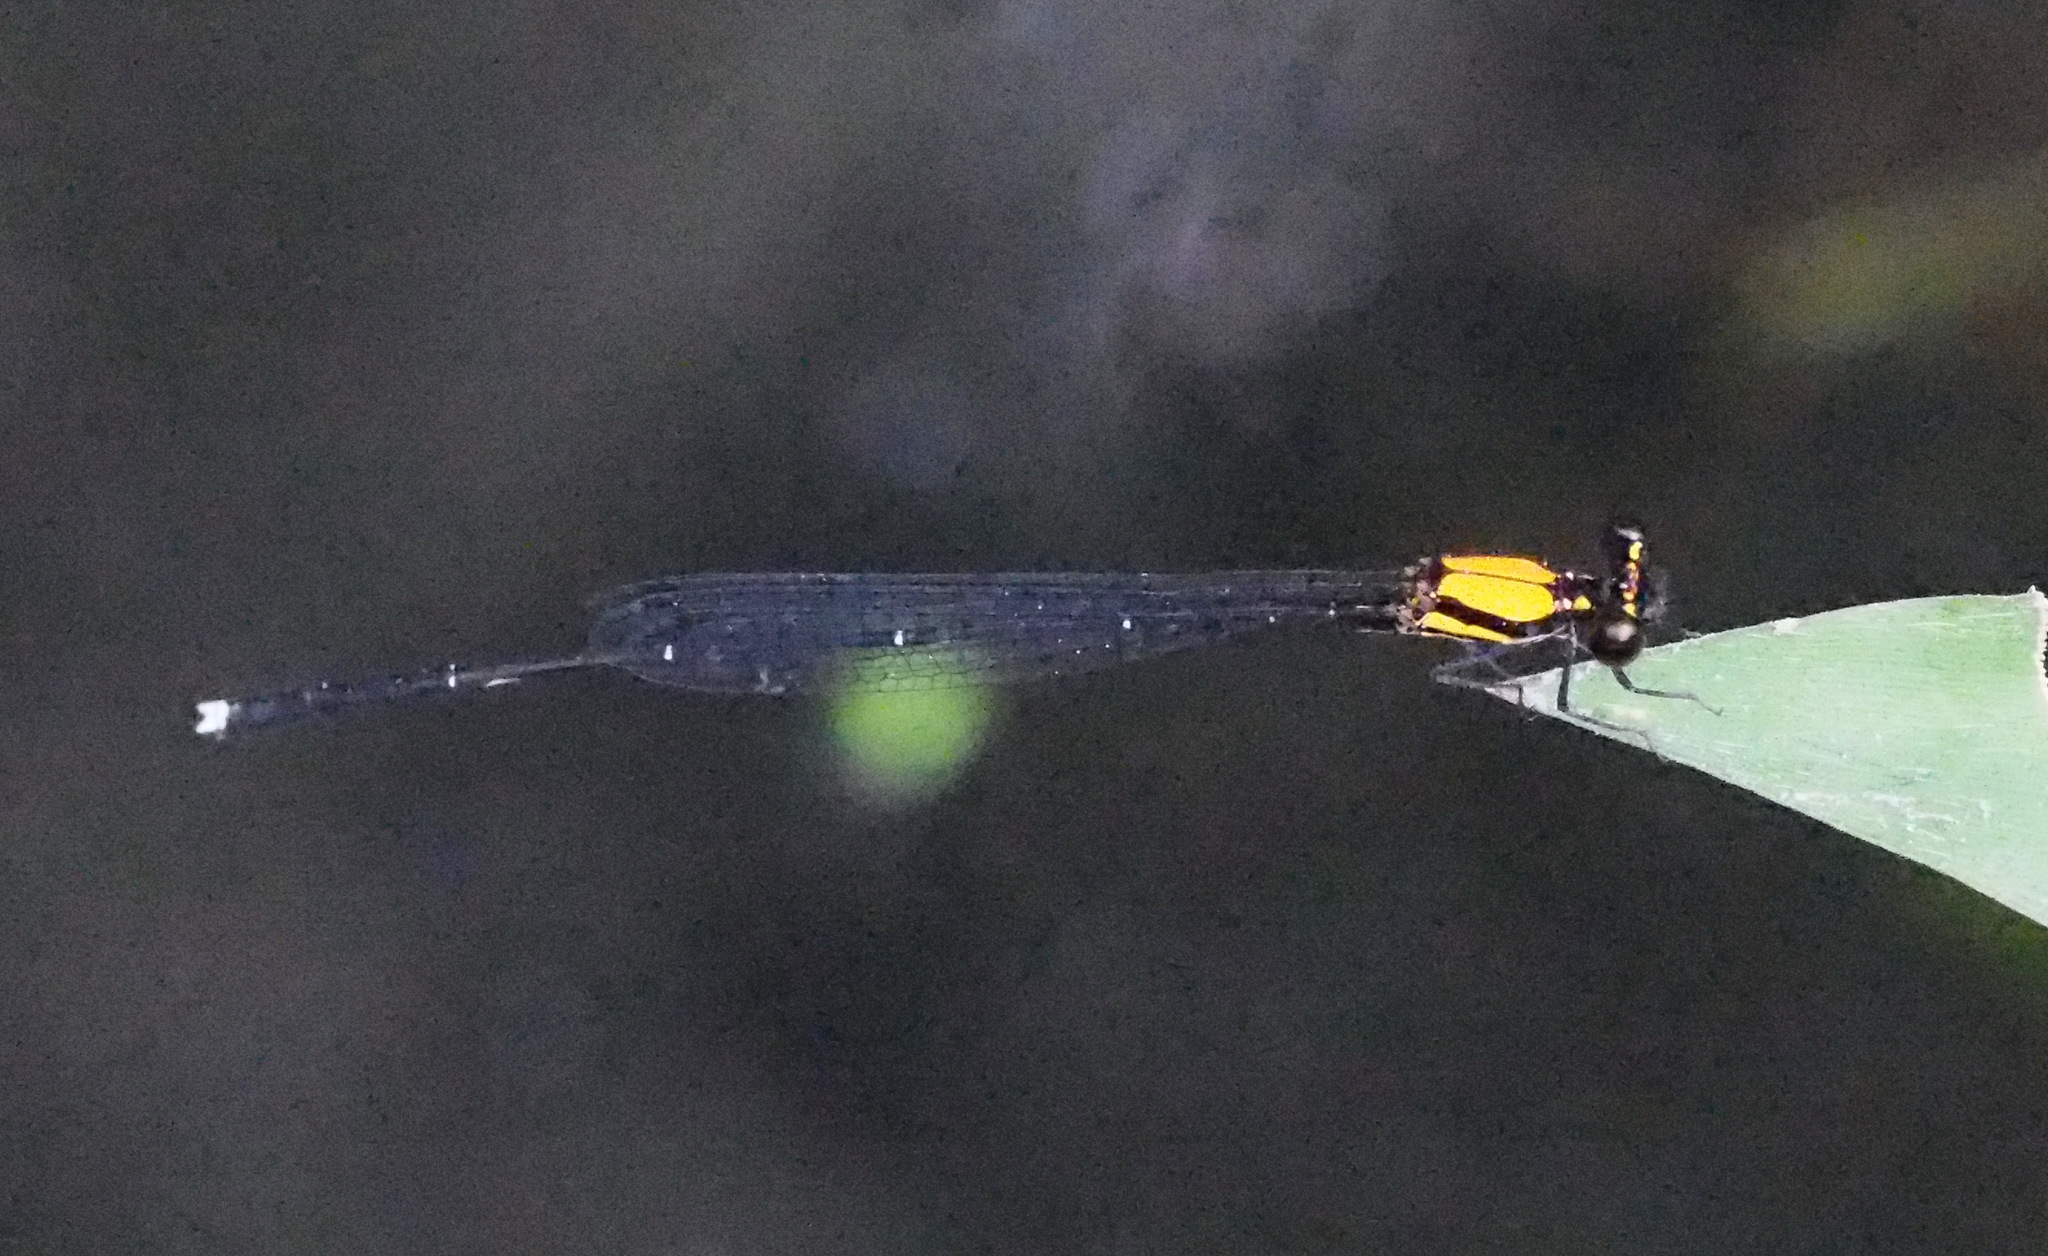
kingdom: Animalia
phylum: Arthropoda
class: Insecta
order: Odonata
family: Platycnemididae
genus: Prodasineura
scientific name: Prodasineura croconota
